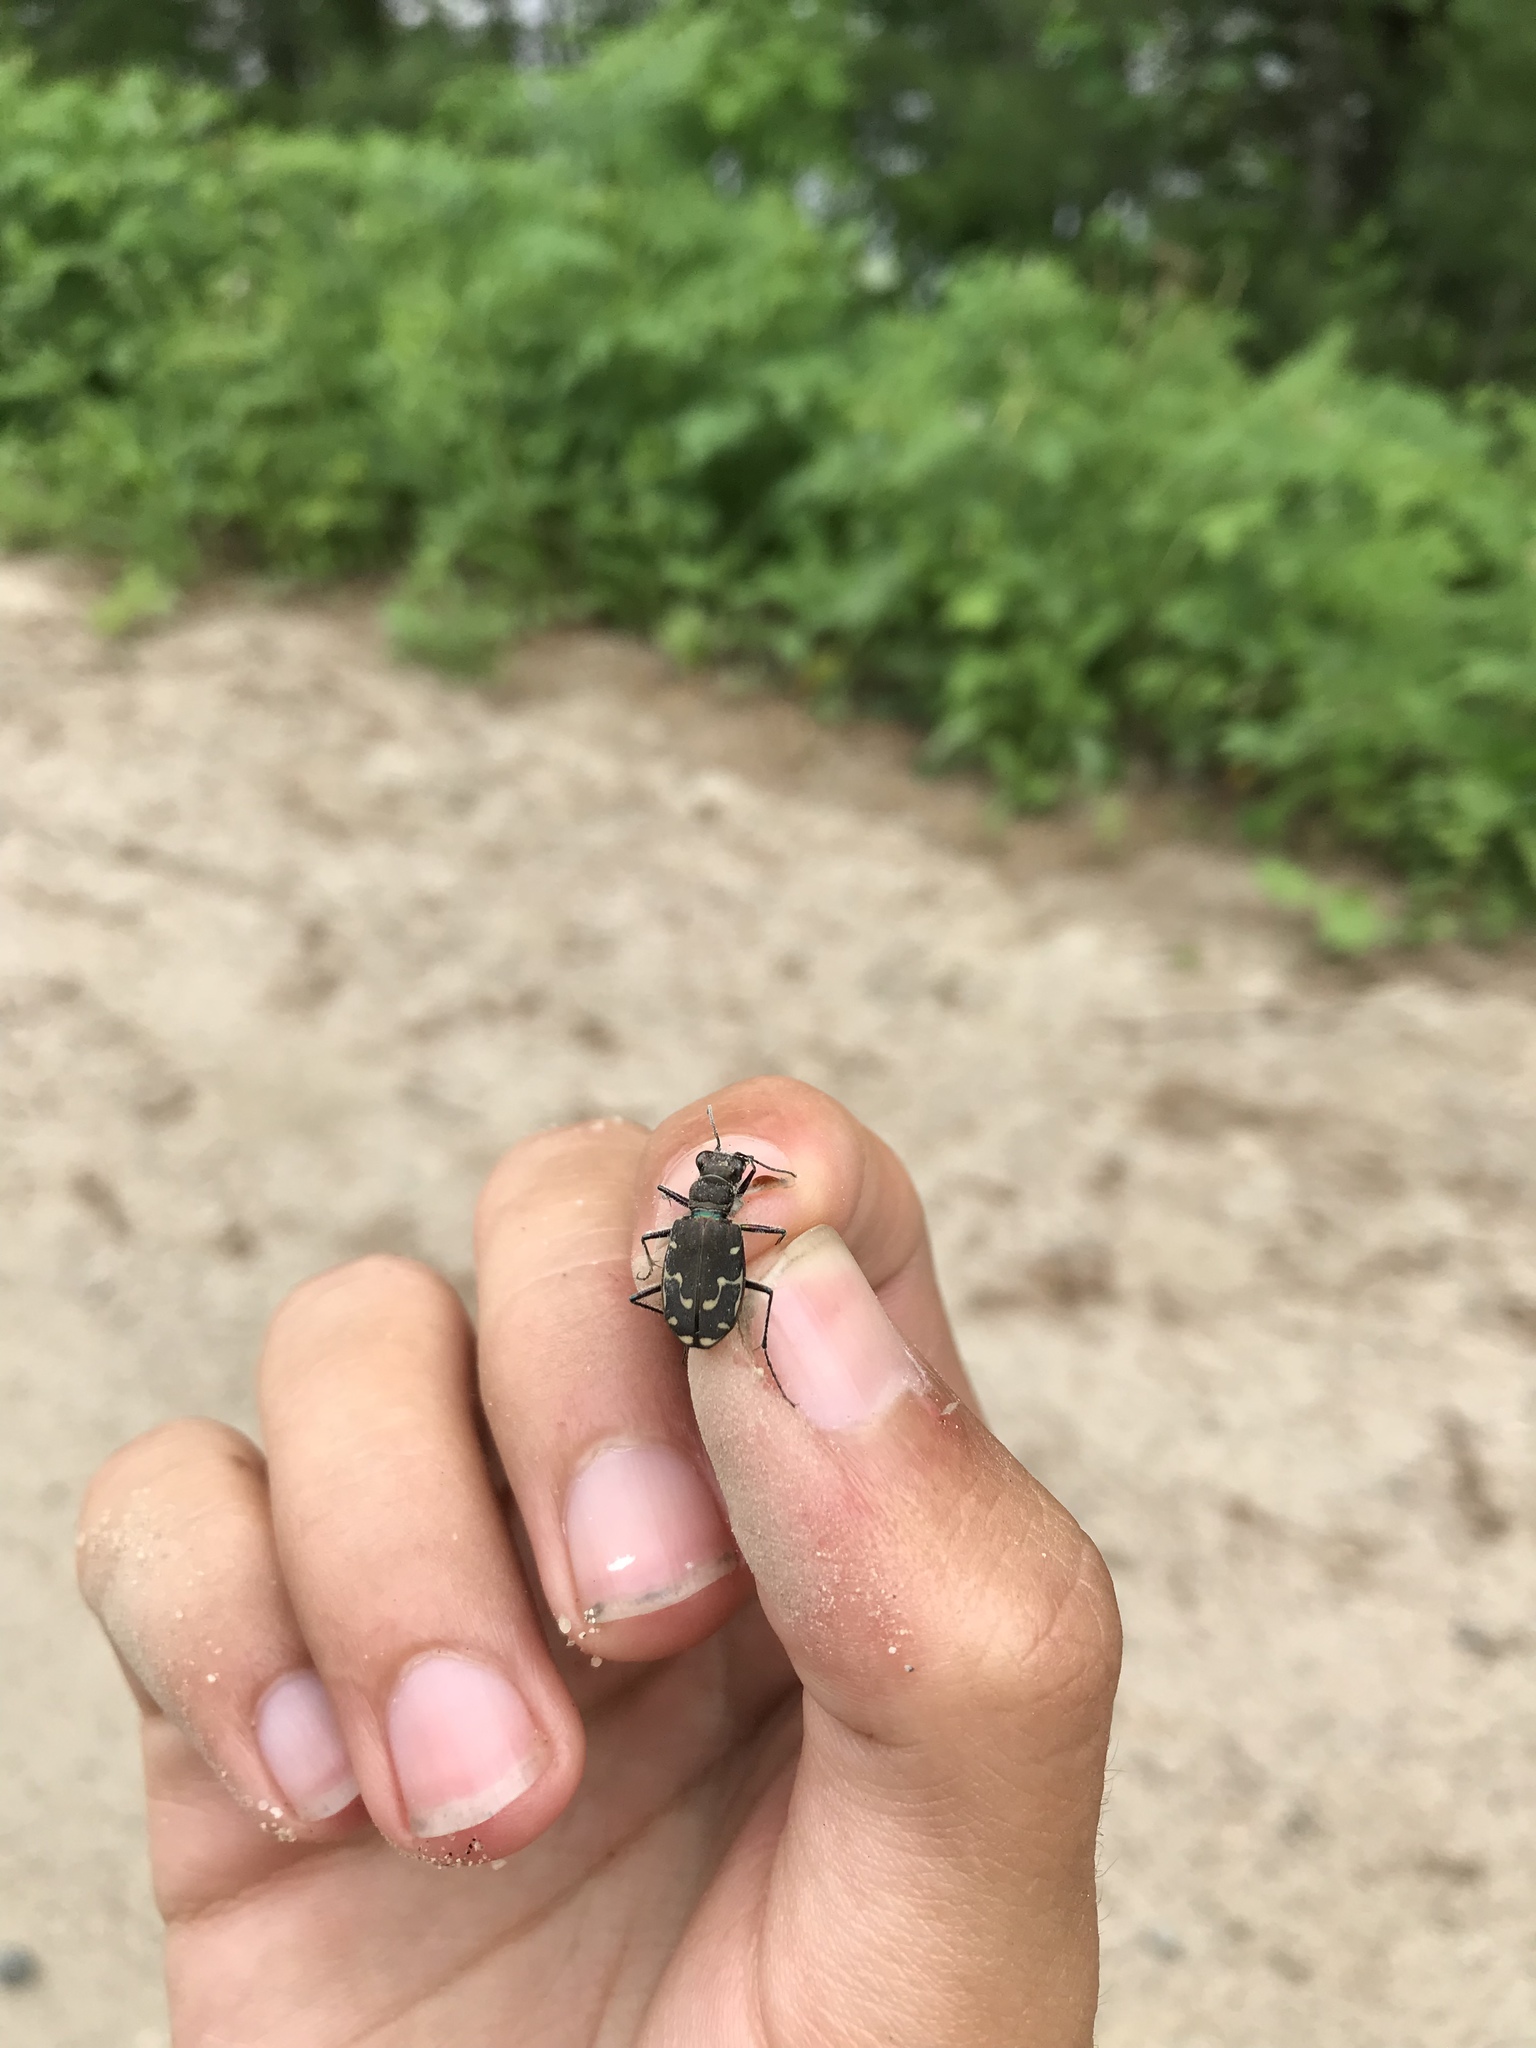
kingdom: Animalia
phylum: Arthropoda
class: Insecta
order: Coleoptera
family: Carabidae
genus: Cicindela
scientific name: Cicindela duodecimguttata
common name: Twelve-spotted tiger beetle
